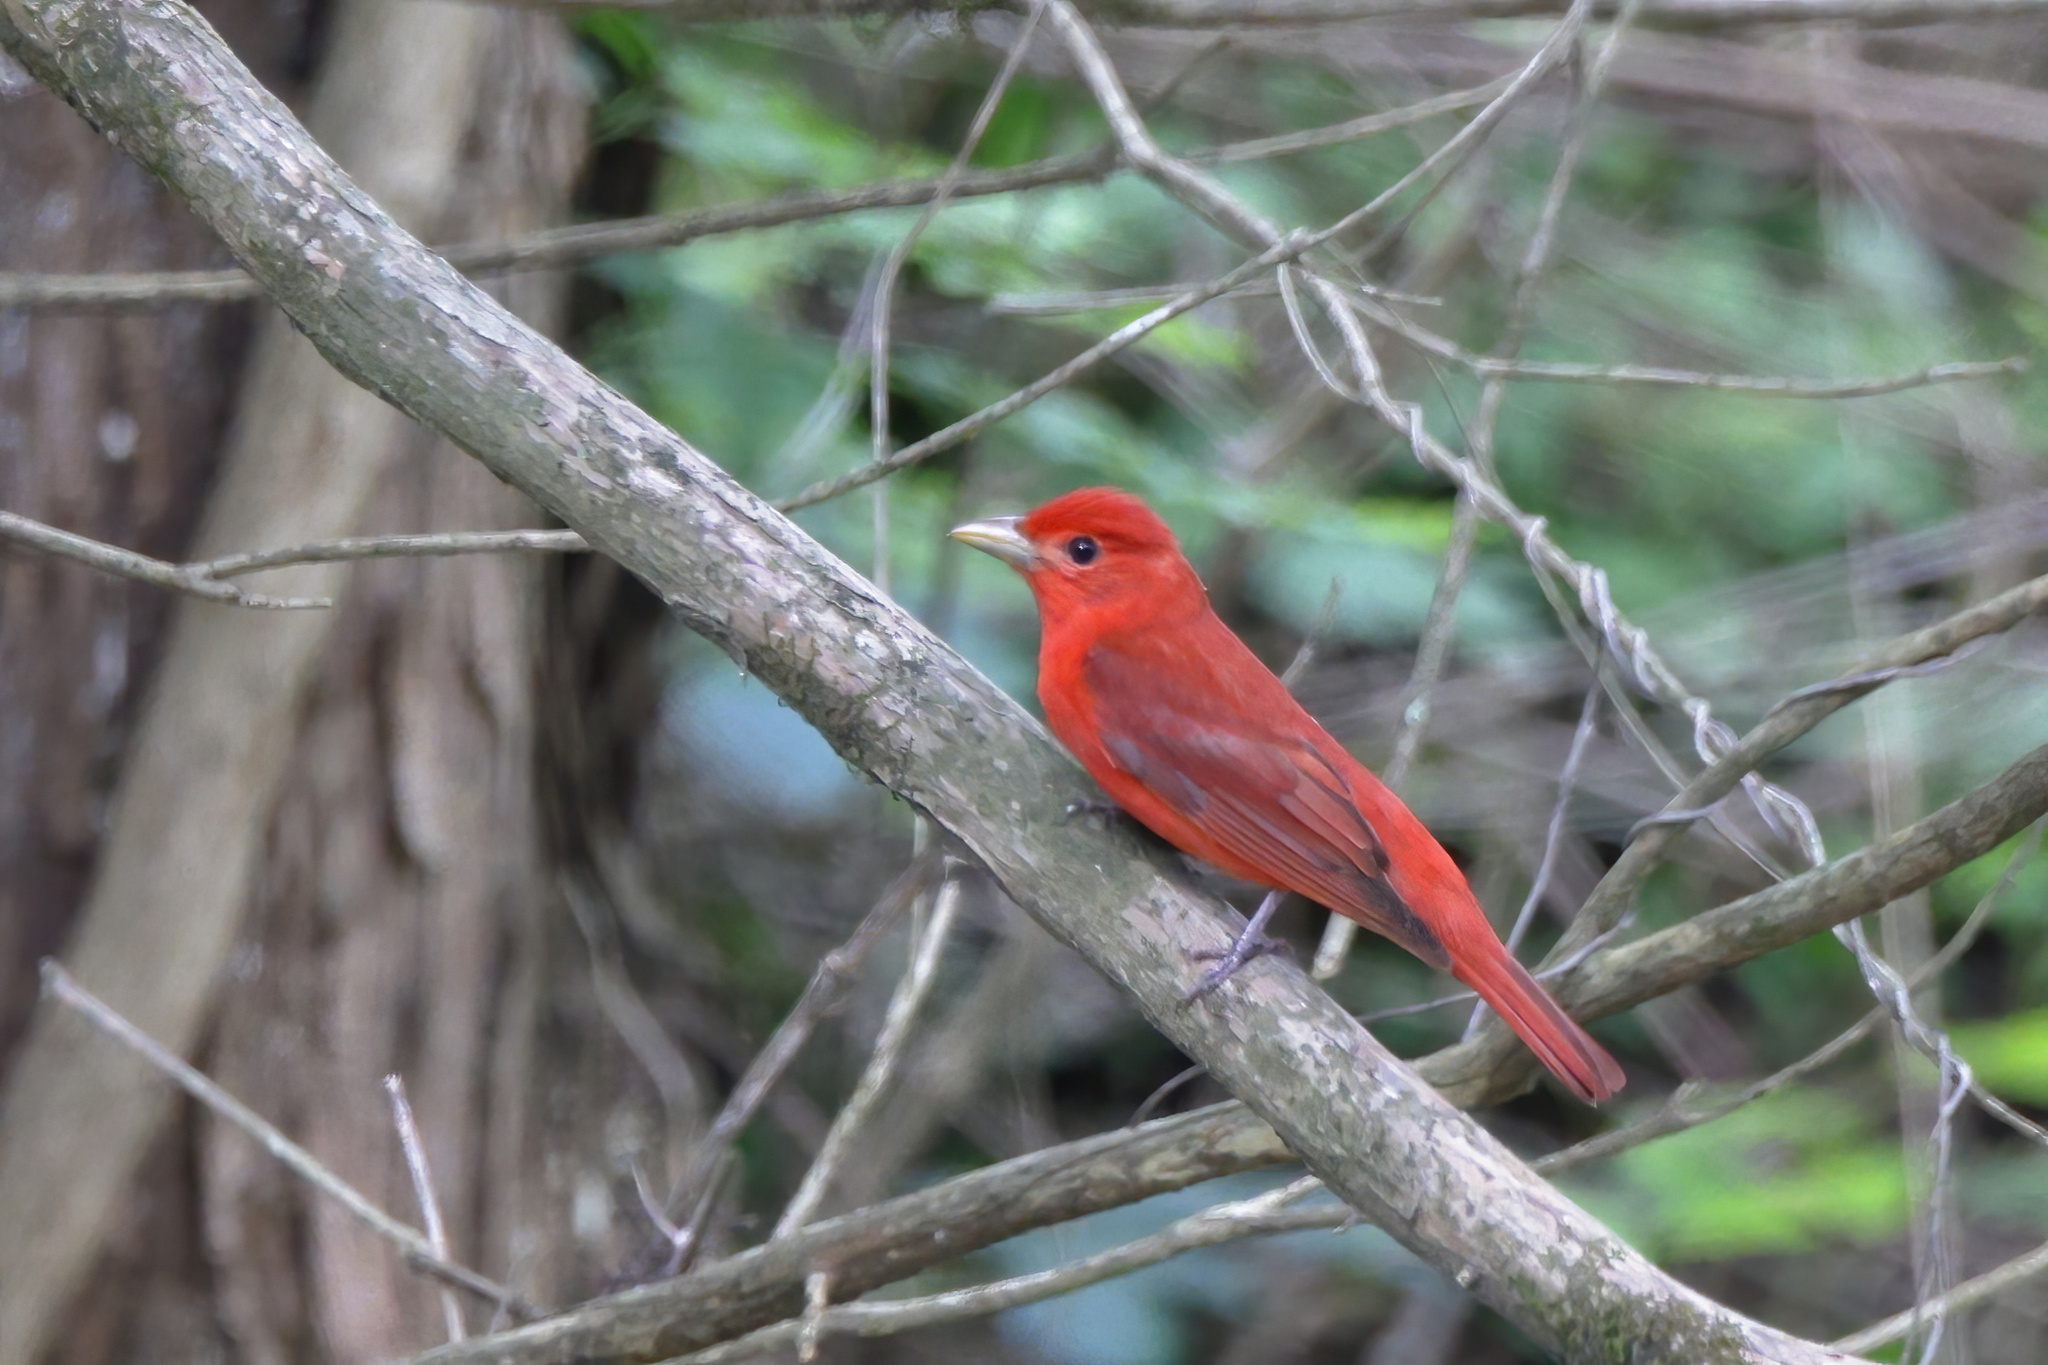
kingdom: Animalia
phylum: Chordata
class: Aves
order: Passeriformes
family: Cardinalidae
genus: Piranga
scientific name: Piranga rubra
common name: Summer tanager
